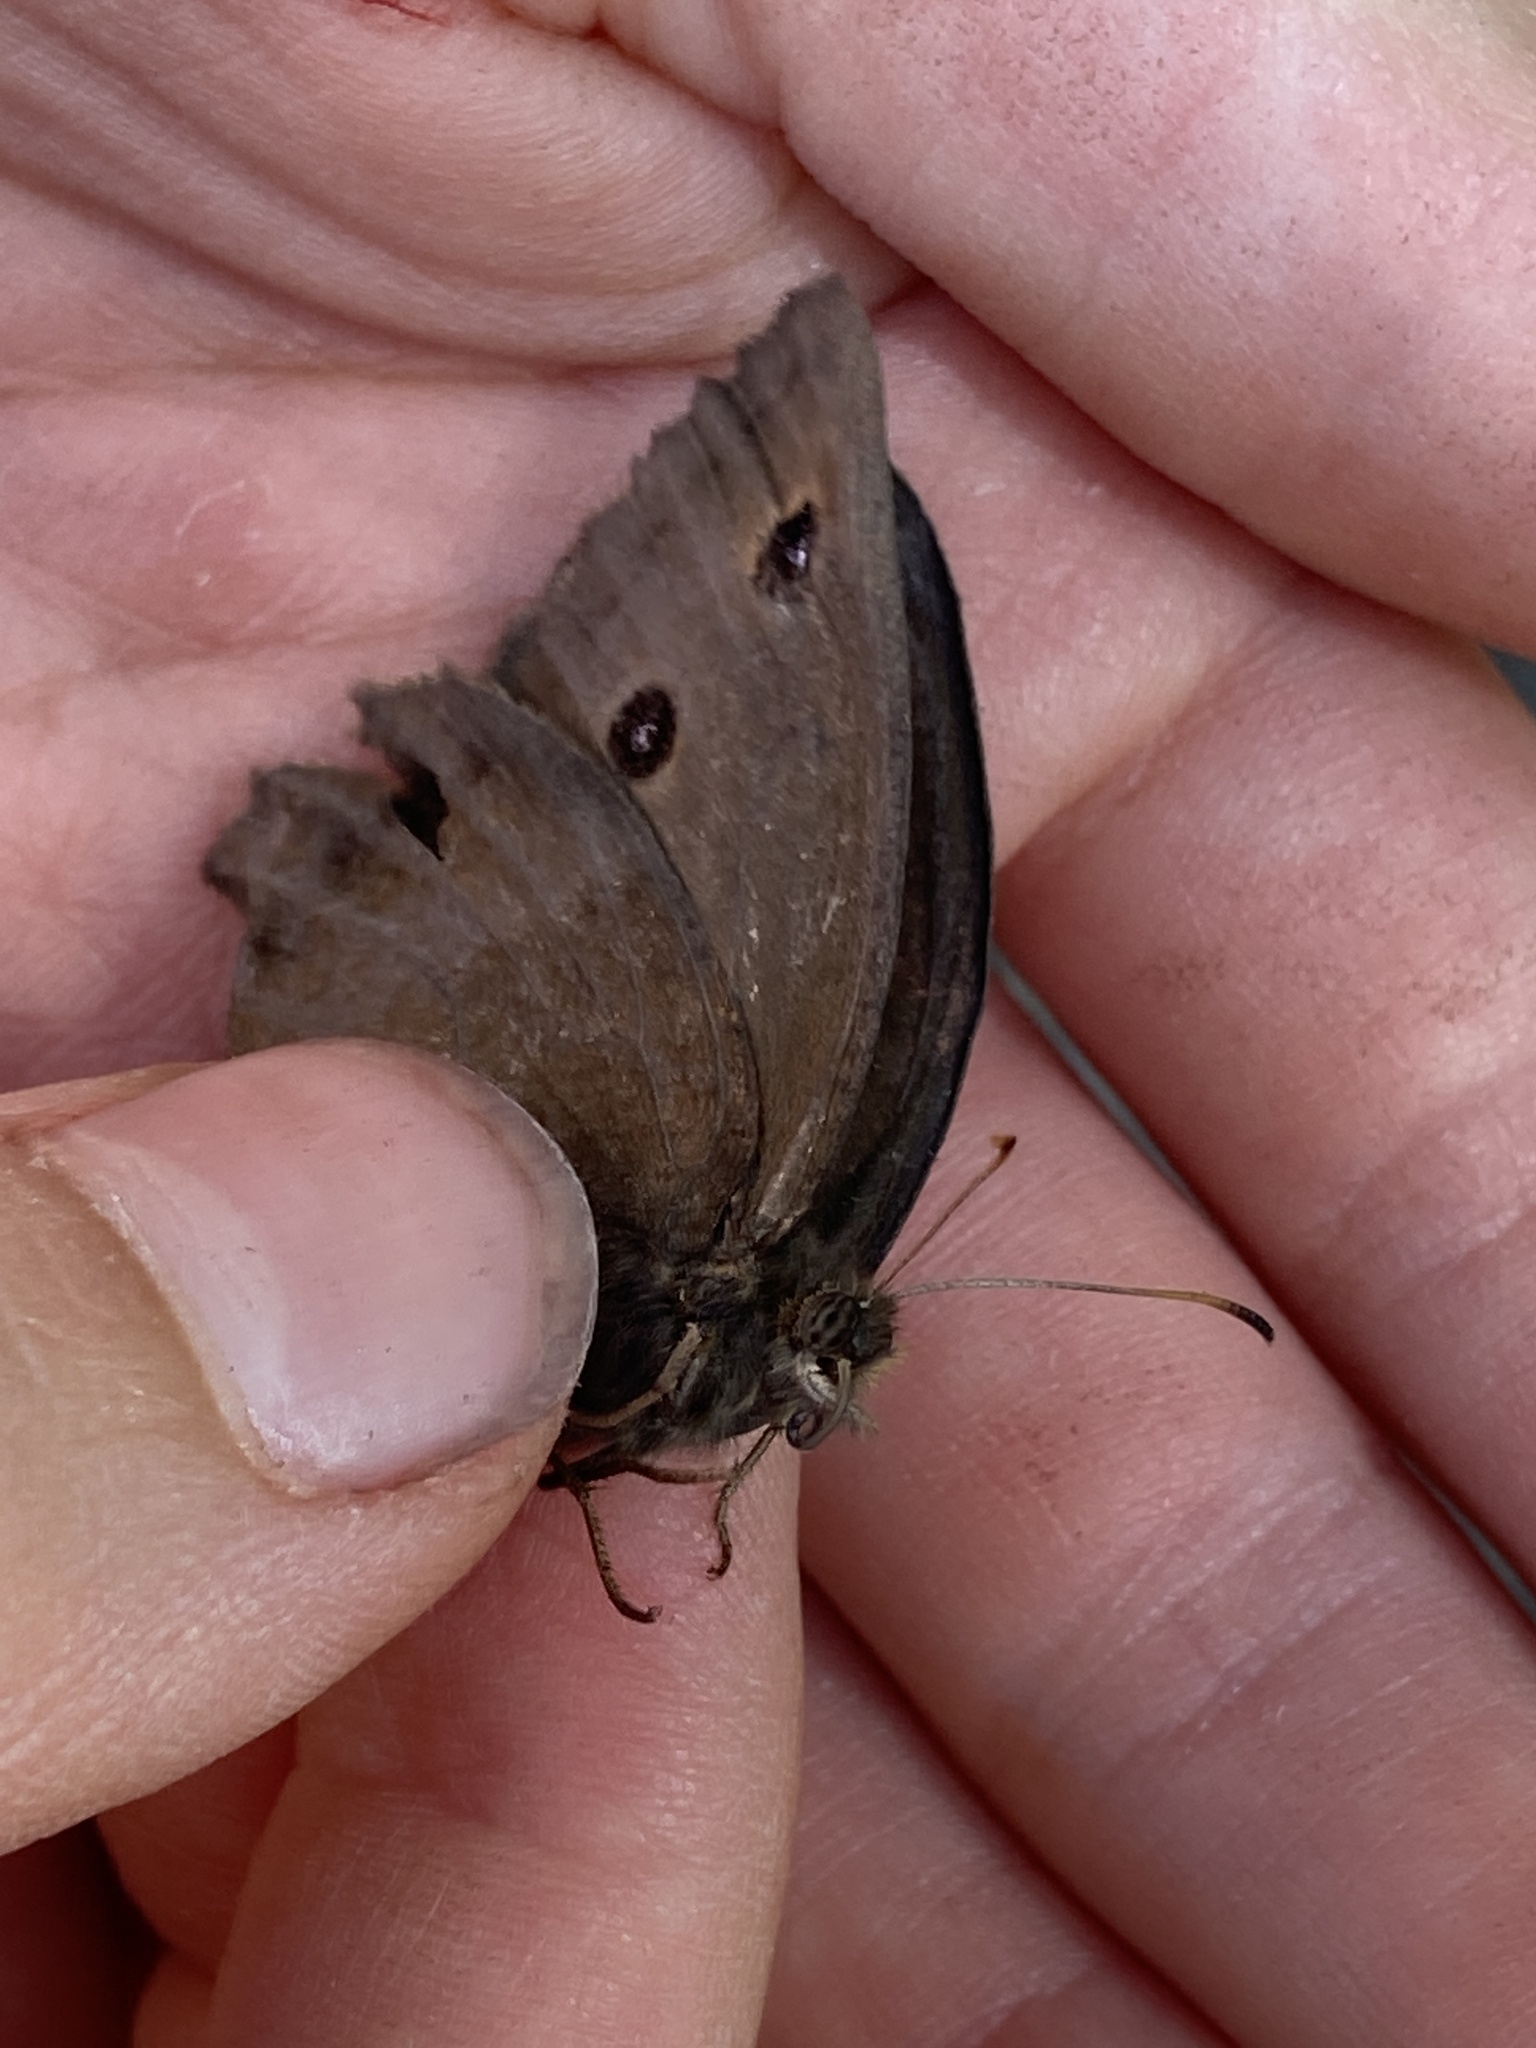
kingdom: Animalia
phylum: Arthropoda
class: Insecta
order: Lepidoptera
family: Nymphalidae
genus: Minois
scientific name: Minois dryas
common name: Dryad
